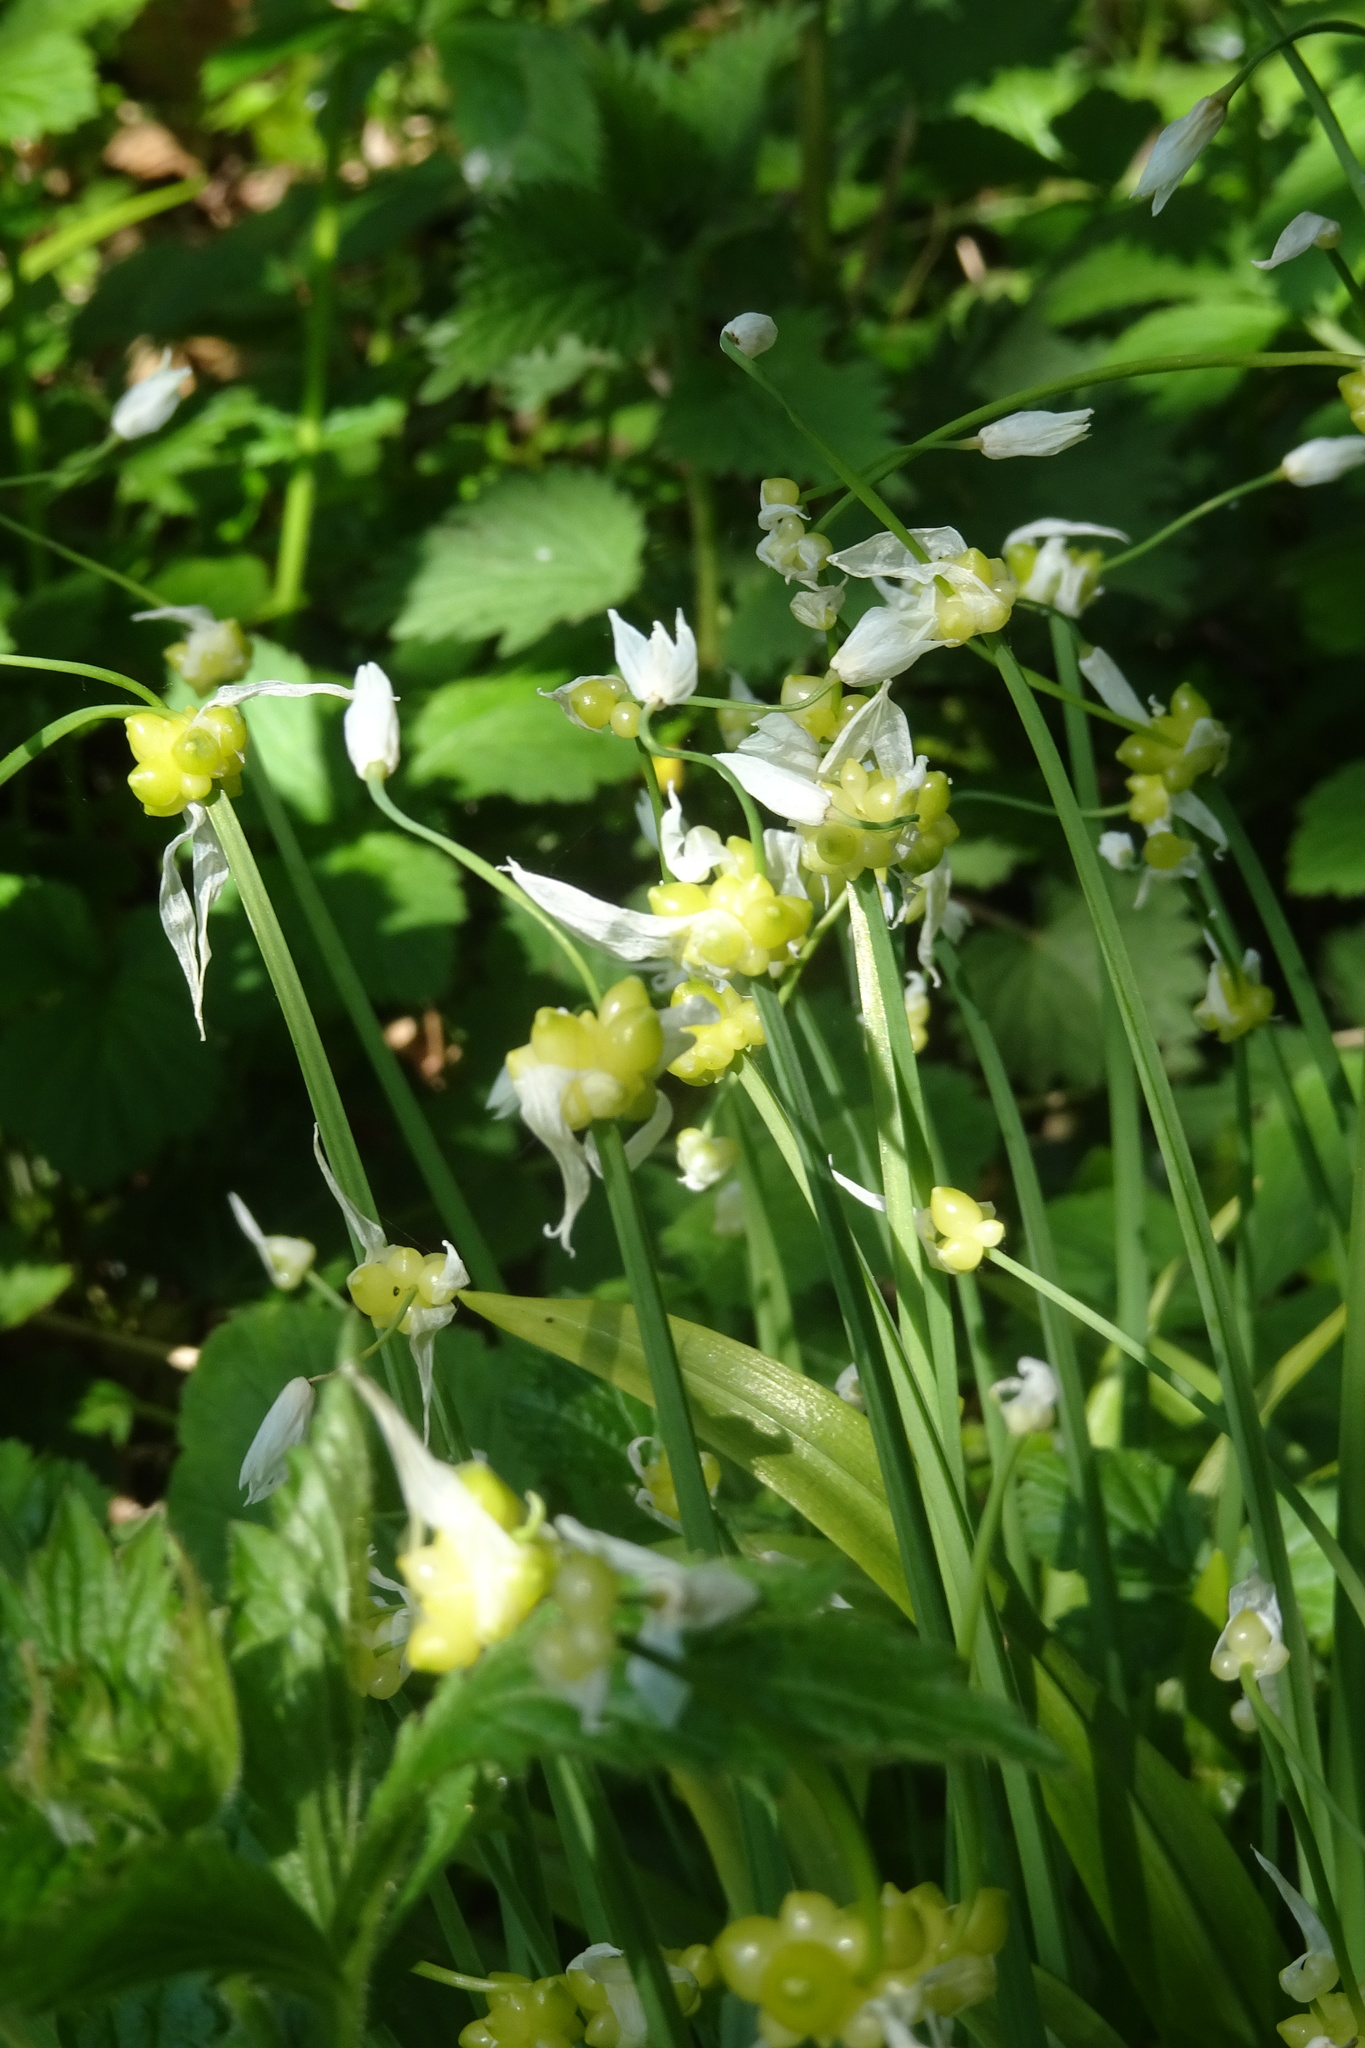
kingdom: Plantae
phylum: Tracheophyta
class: Liliopsida
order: Asparagales
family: Amaryllidaceae
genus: Allium
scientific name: Allium paradoxum
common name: Few-flowered garlic
